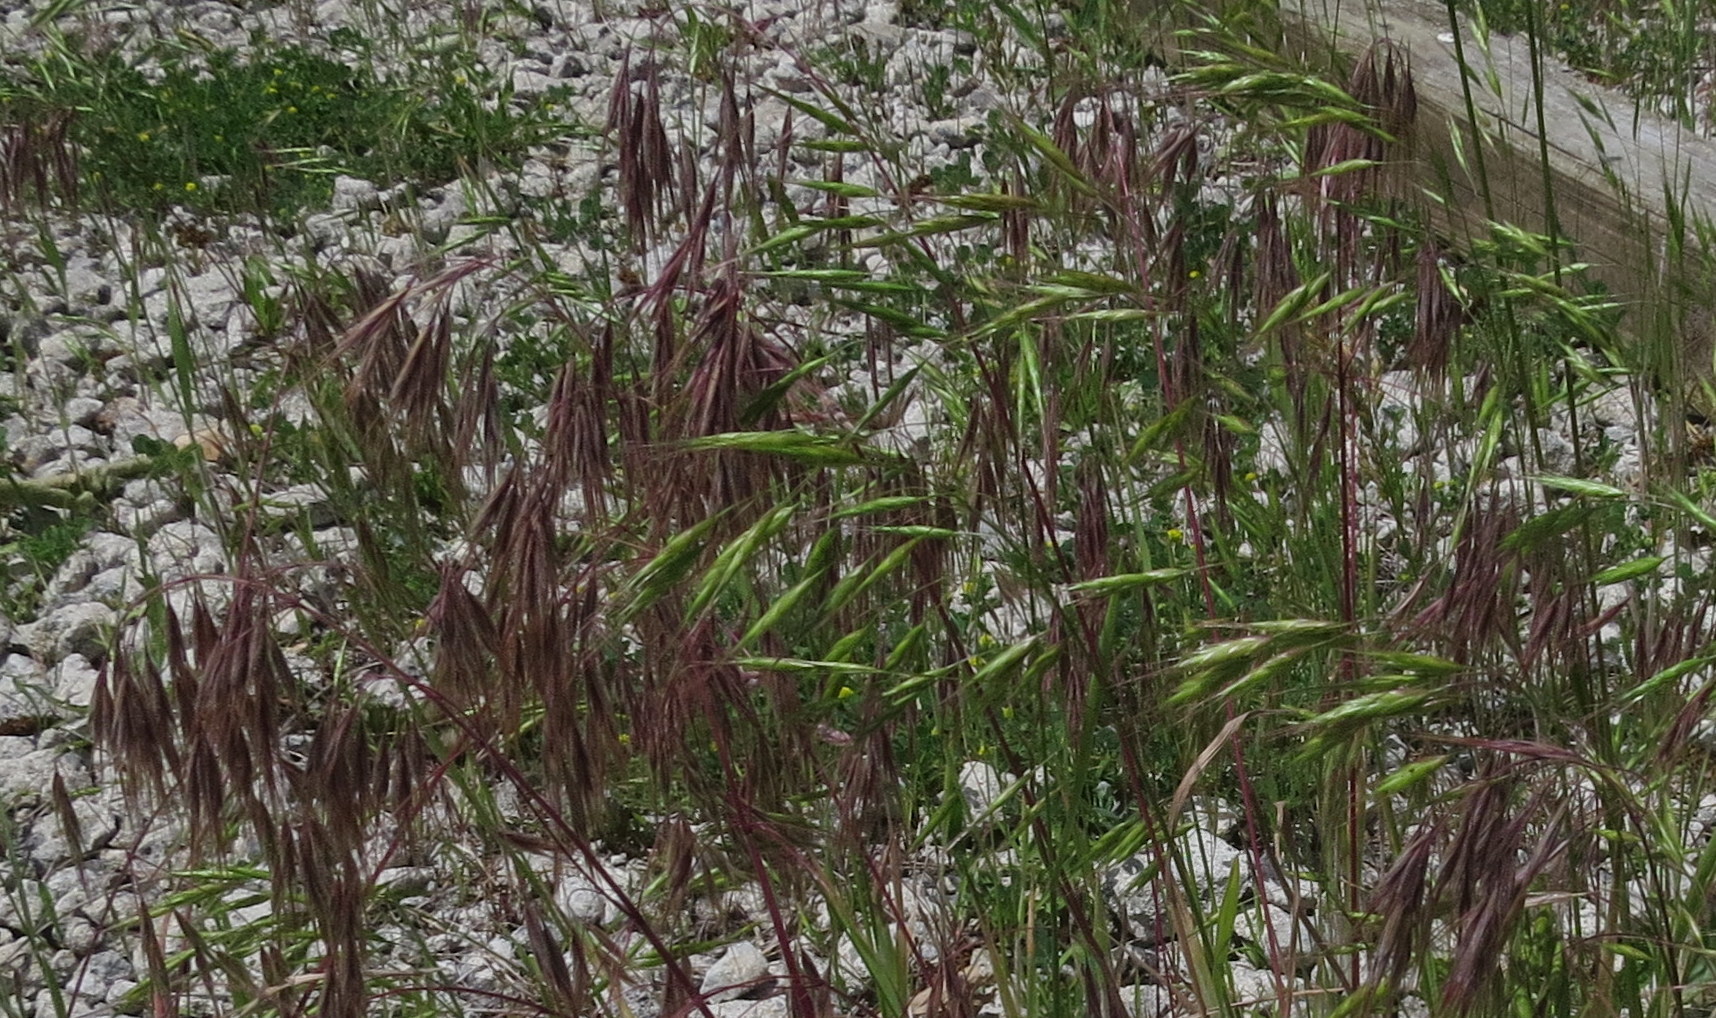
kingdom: Plantae
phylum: Tracheophyta
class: Liliopsida
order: Poales
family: Poaceae
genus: Bromus
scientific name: Bromus tectorum
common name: Cheatgrass
